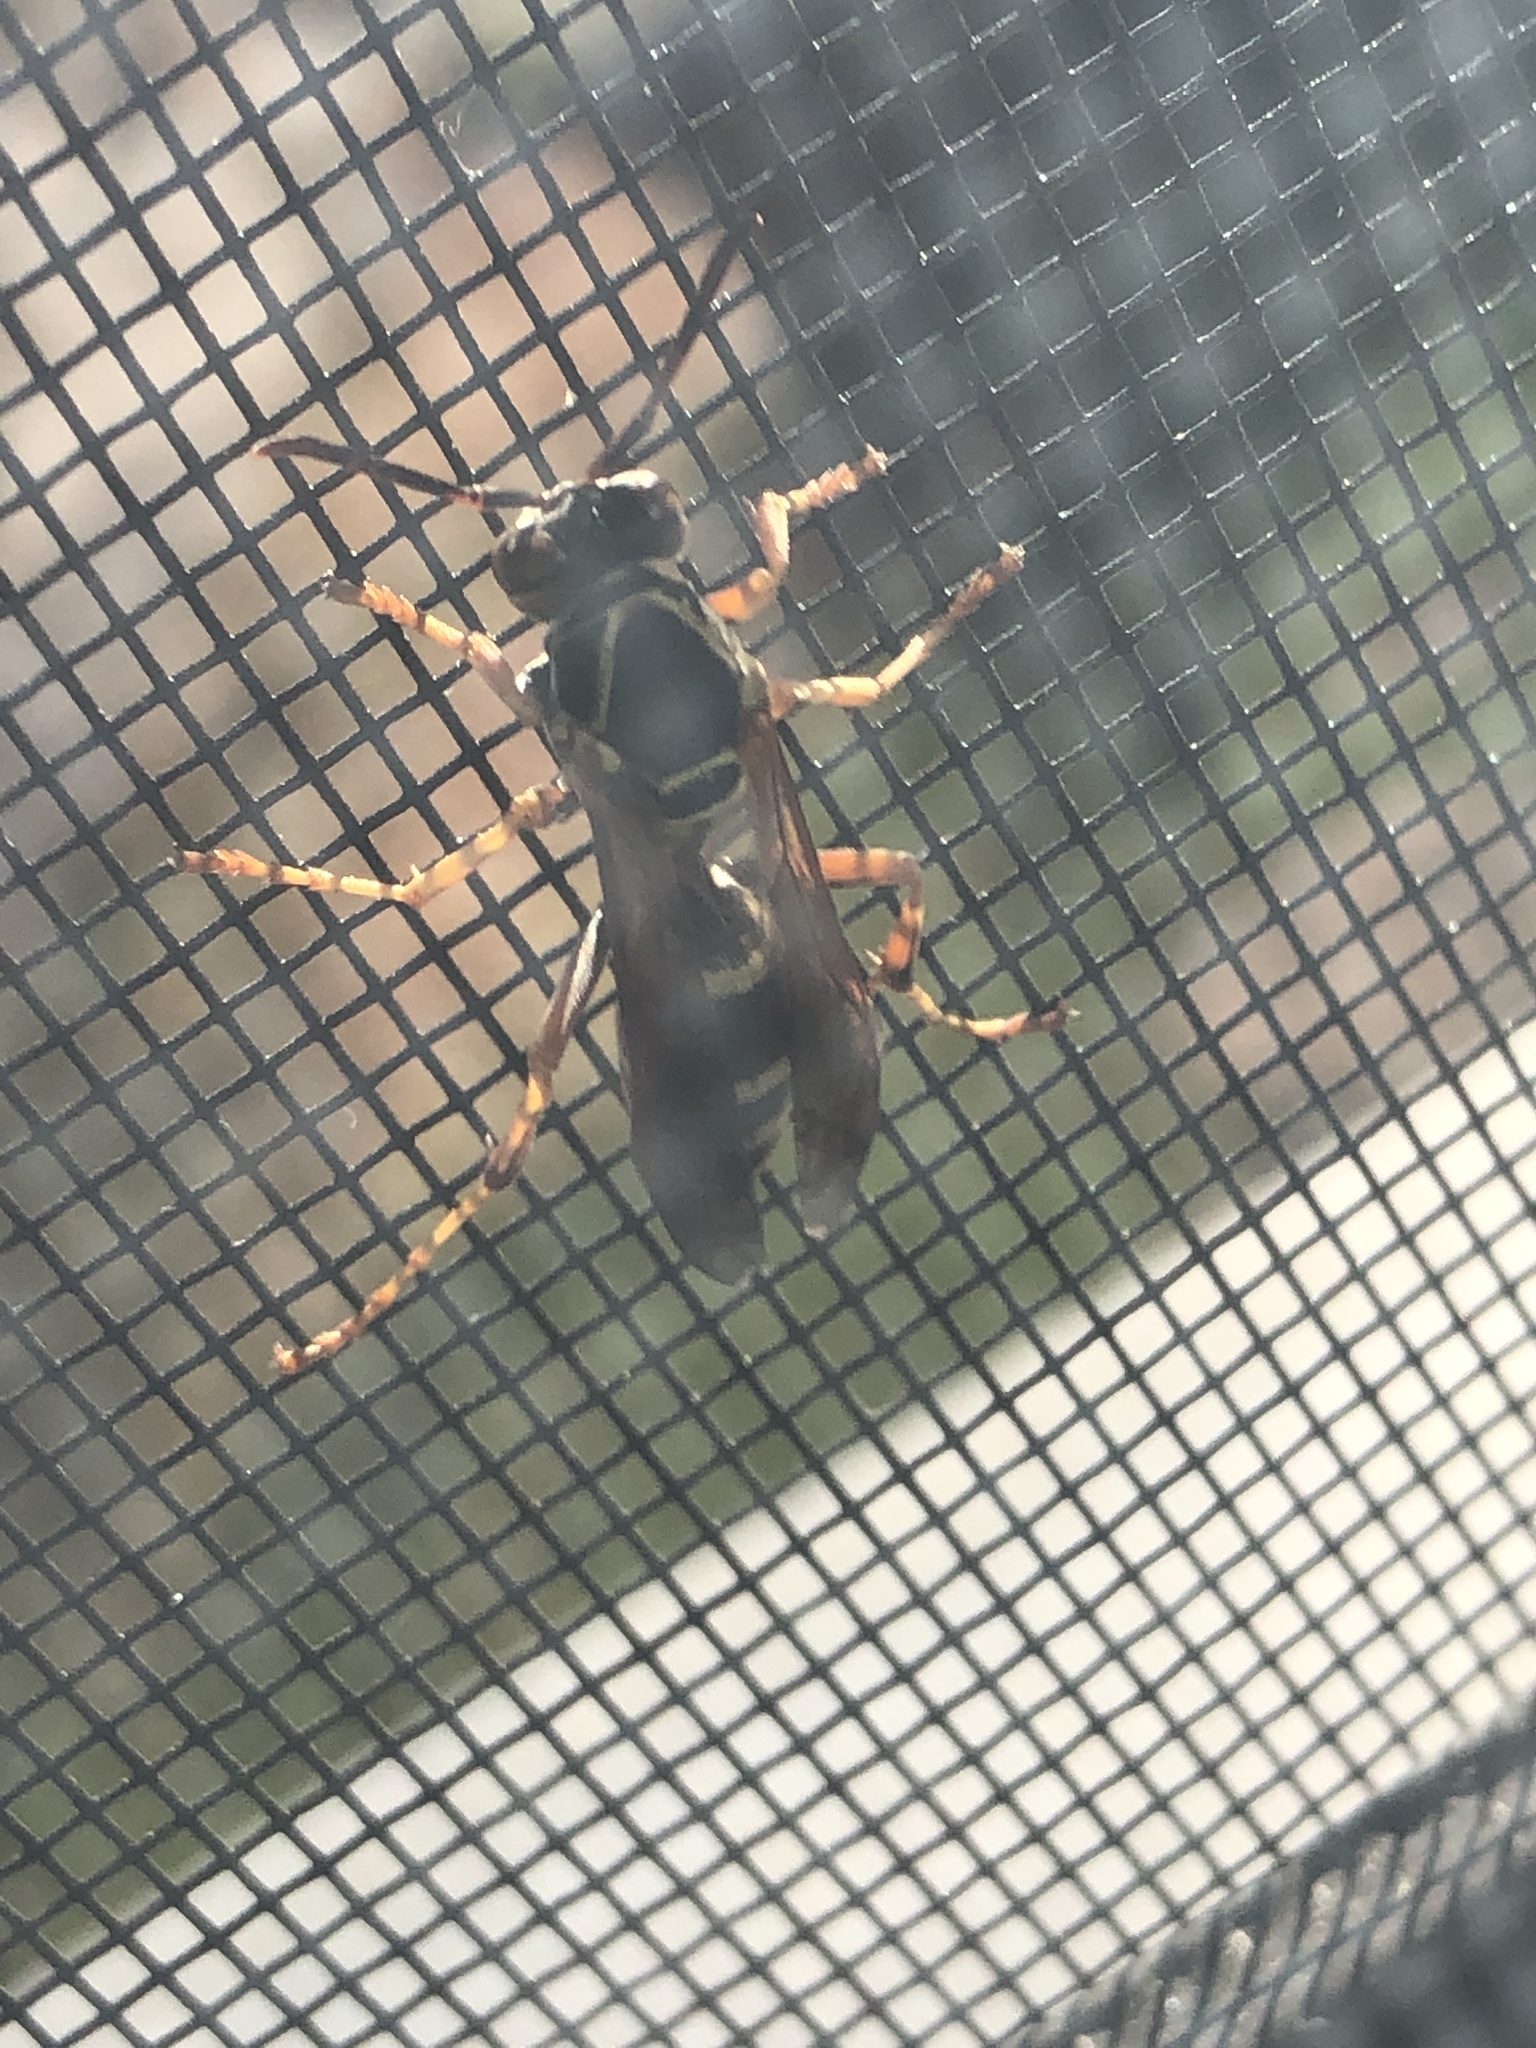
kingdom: Animalia
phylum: Arthropoda
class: Insecta
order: Hymenoptera
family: Eumenidae
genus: Polistes
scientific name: Polistes fuscatus
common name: Dark paper wasp
